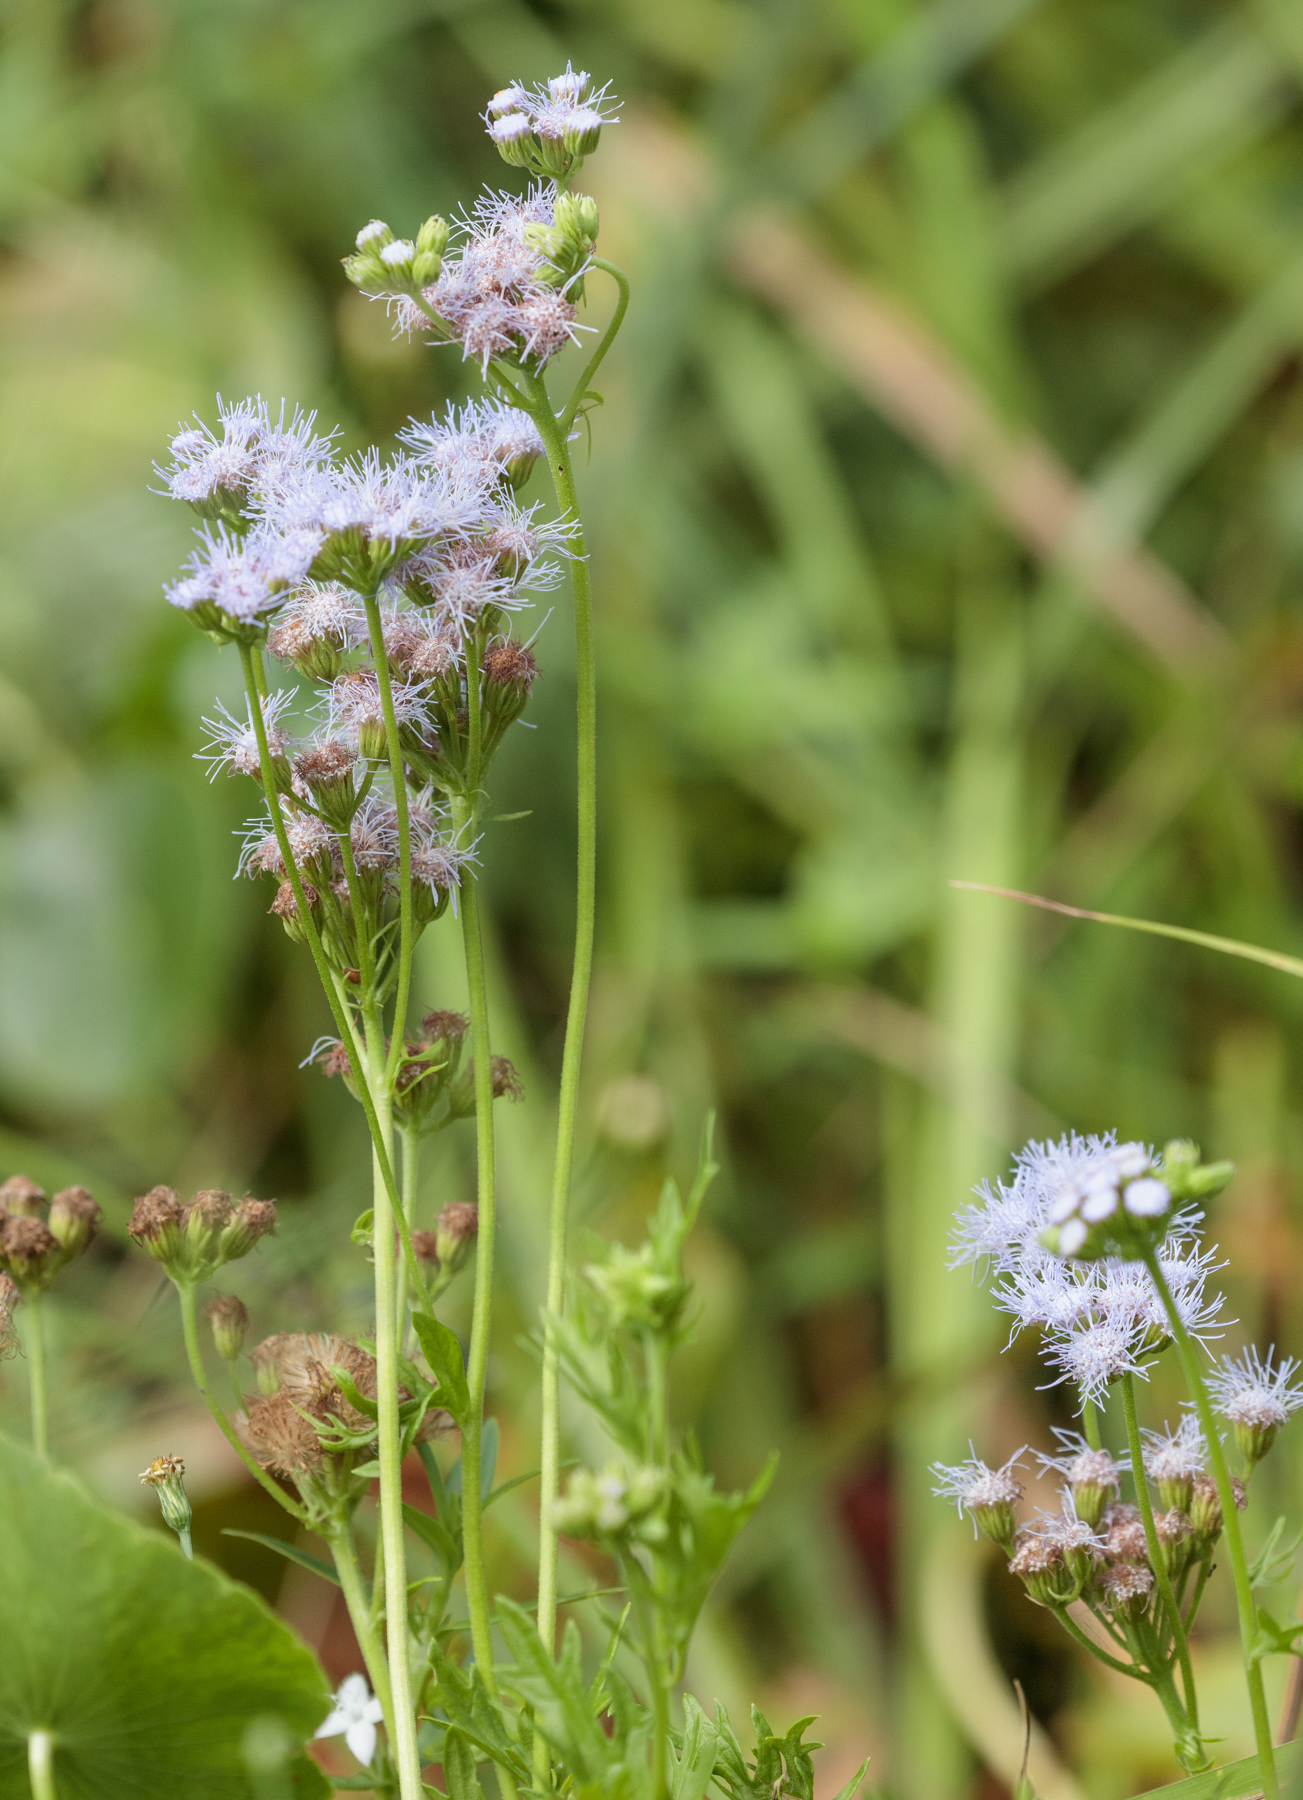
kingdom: Plantae
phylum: Tracheophyta
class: Magnoliopsida
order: Asterales
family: Asteraceae
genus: Conoclinium
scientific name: Conoclinium dissectum
